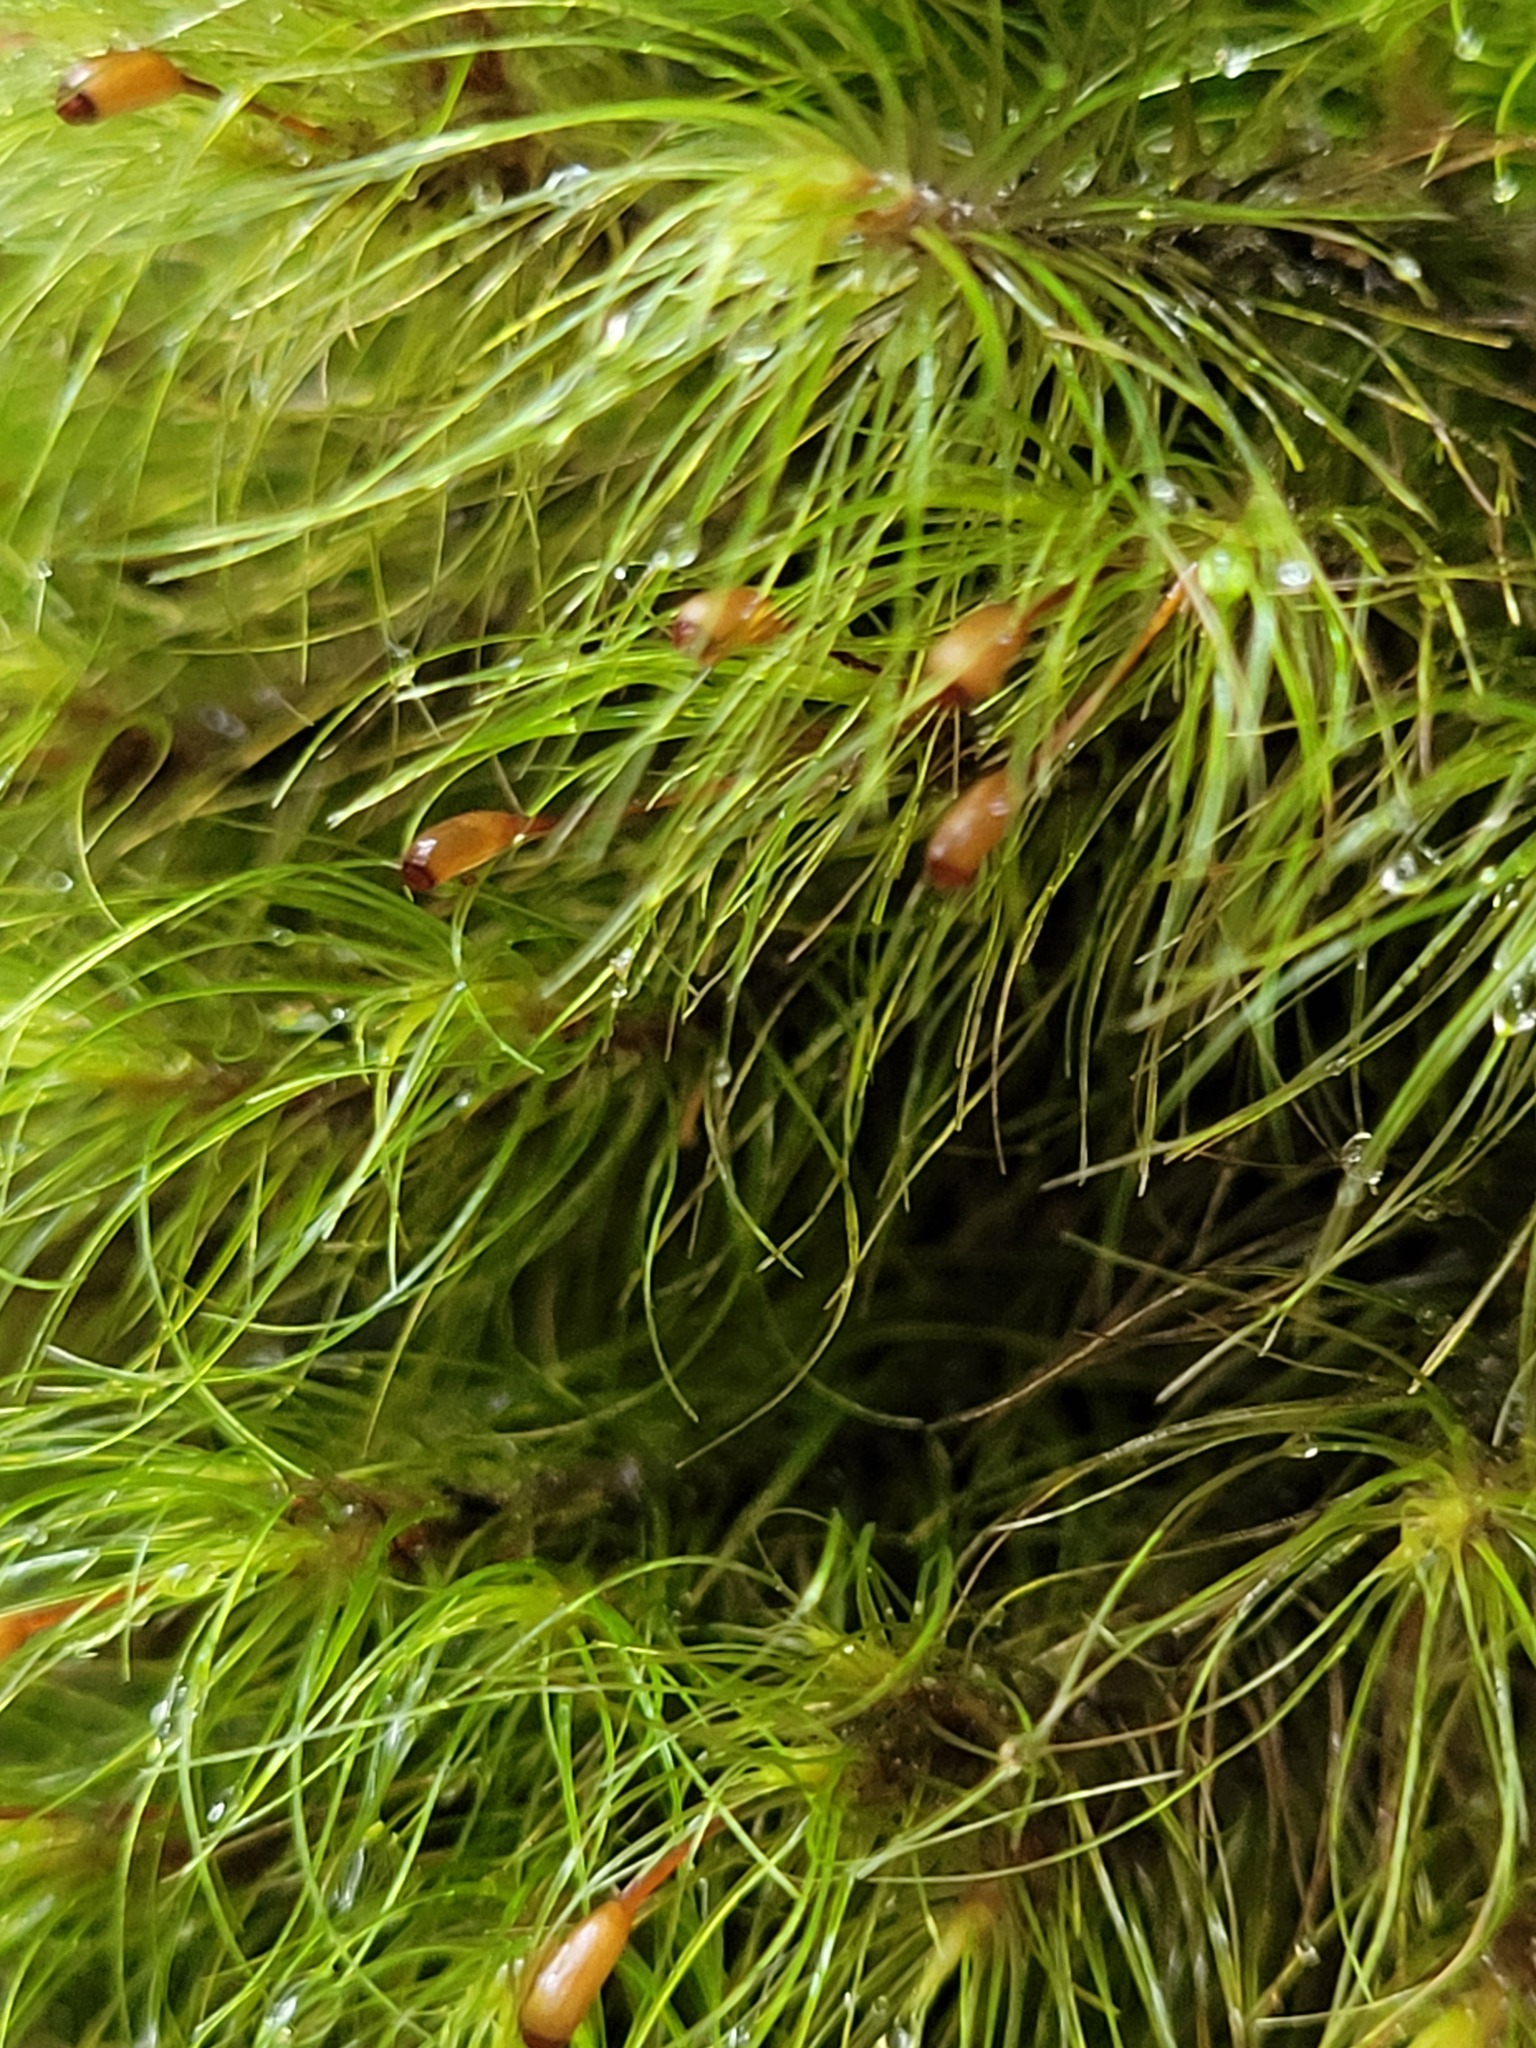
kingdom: Plantae
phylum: Bryophyta
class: Bryopsida
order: Dicranales
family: Dicranaceae
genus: Dicranoloma
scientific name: Dicranoloma menziesii
